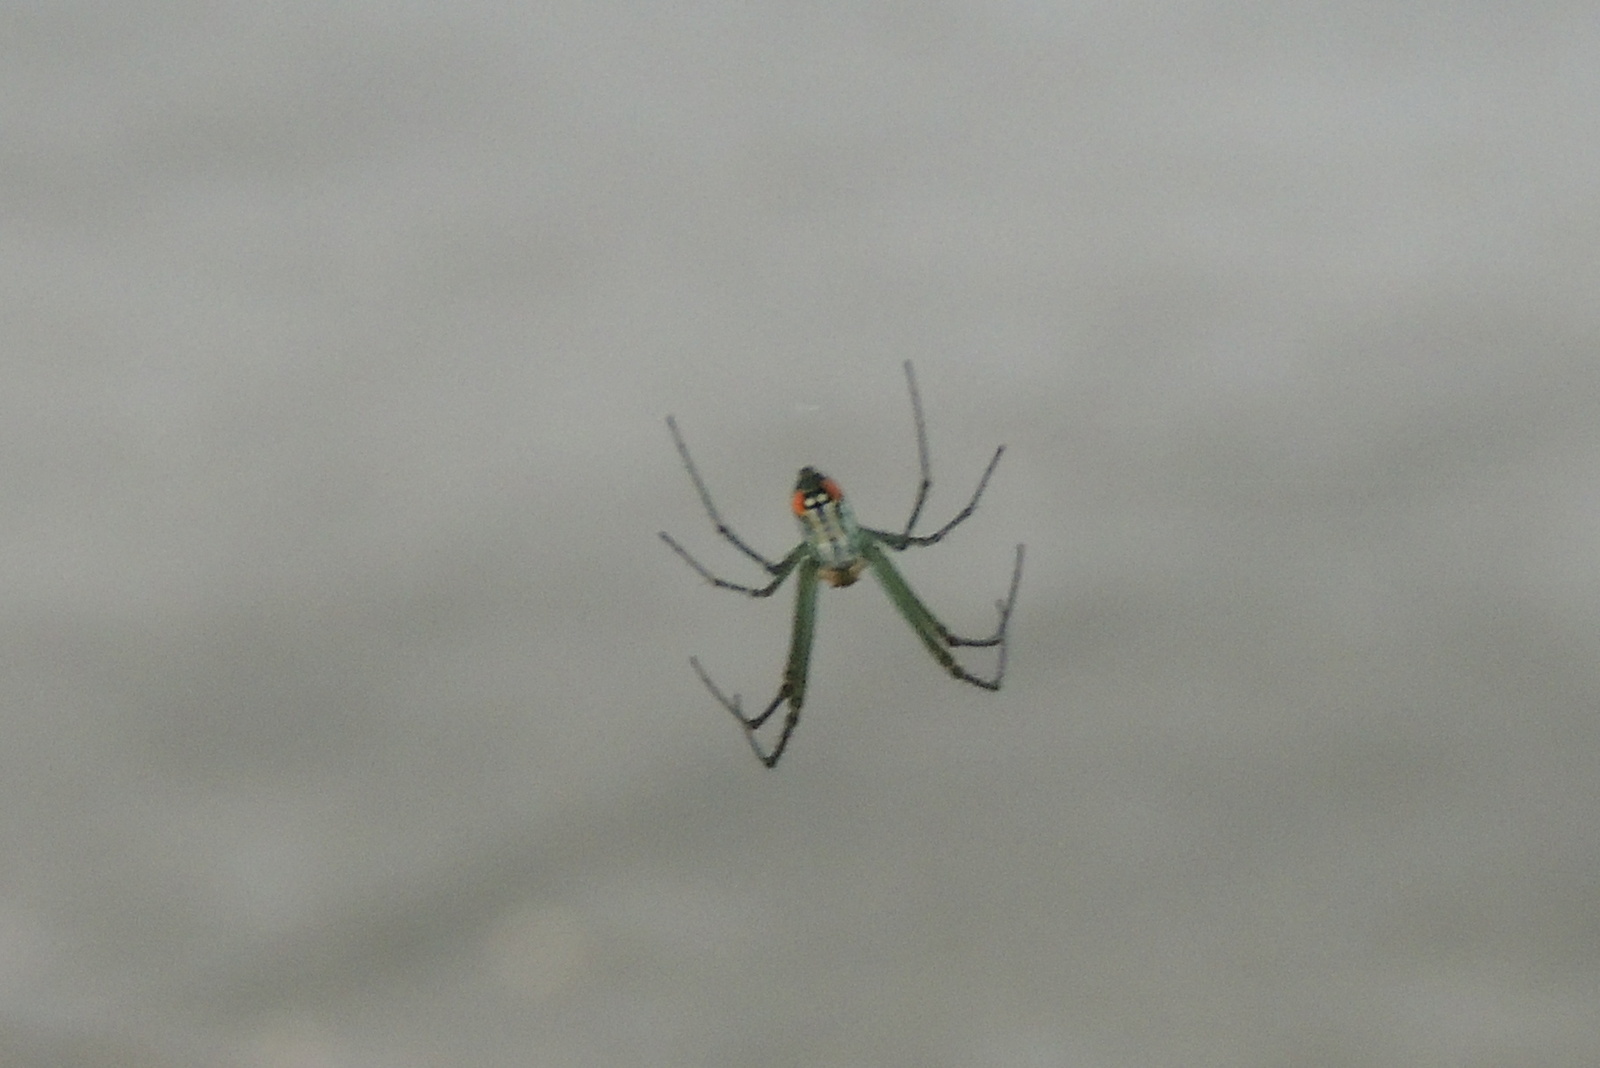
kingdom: Animalia
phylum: Arthropoda
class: Arachnida
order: Araneae
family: Tetragnathidae
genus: Leucauge
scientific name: Leucauge argyrobapta
